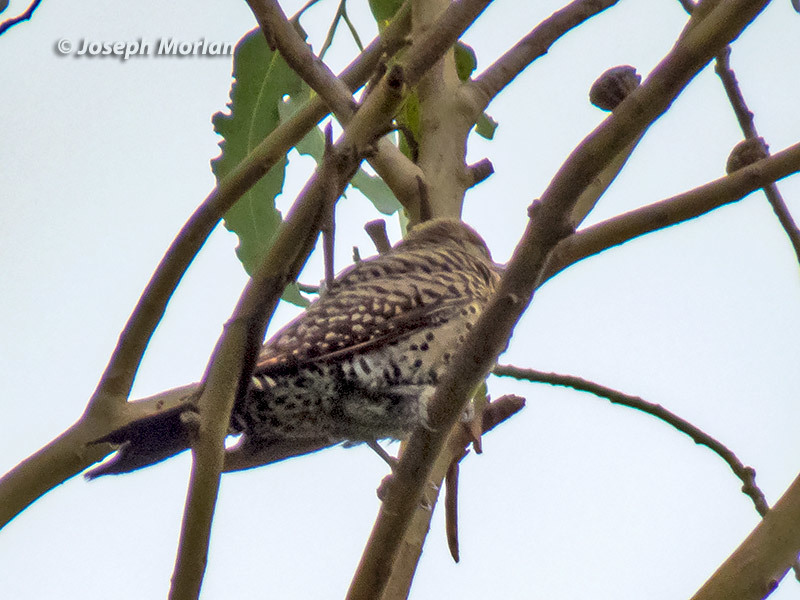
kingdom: Animalia
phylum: Chordata
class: Aves
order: Piciformes
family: Picidae
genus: Colaptes
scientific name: Colaptes auratus
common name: Northern flicker
